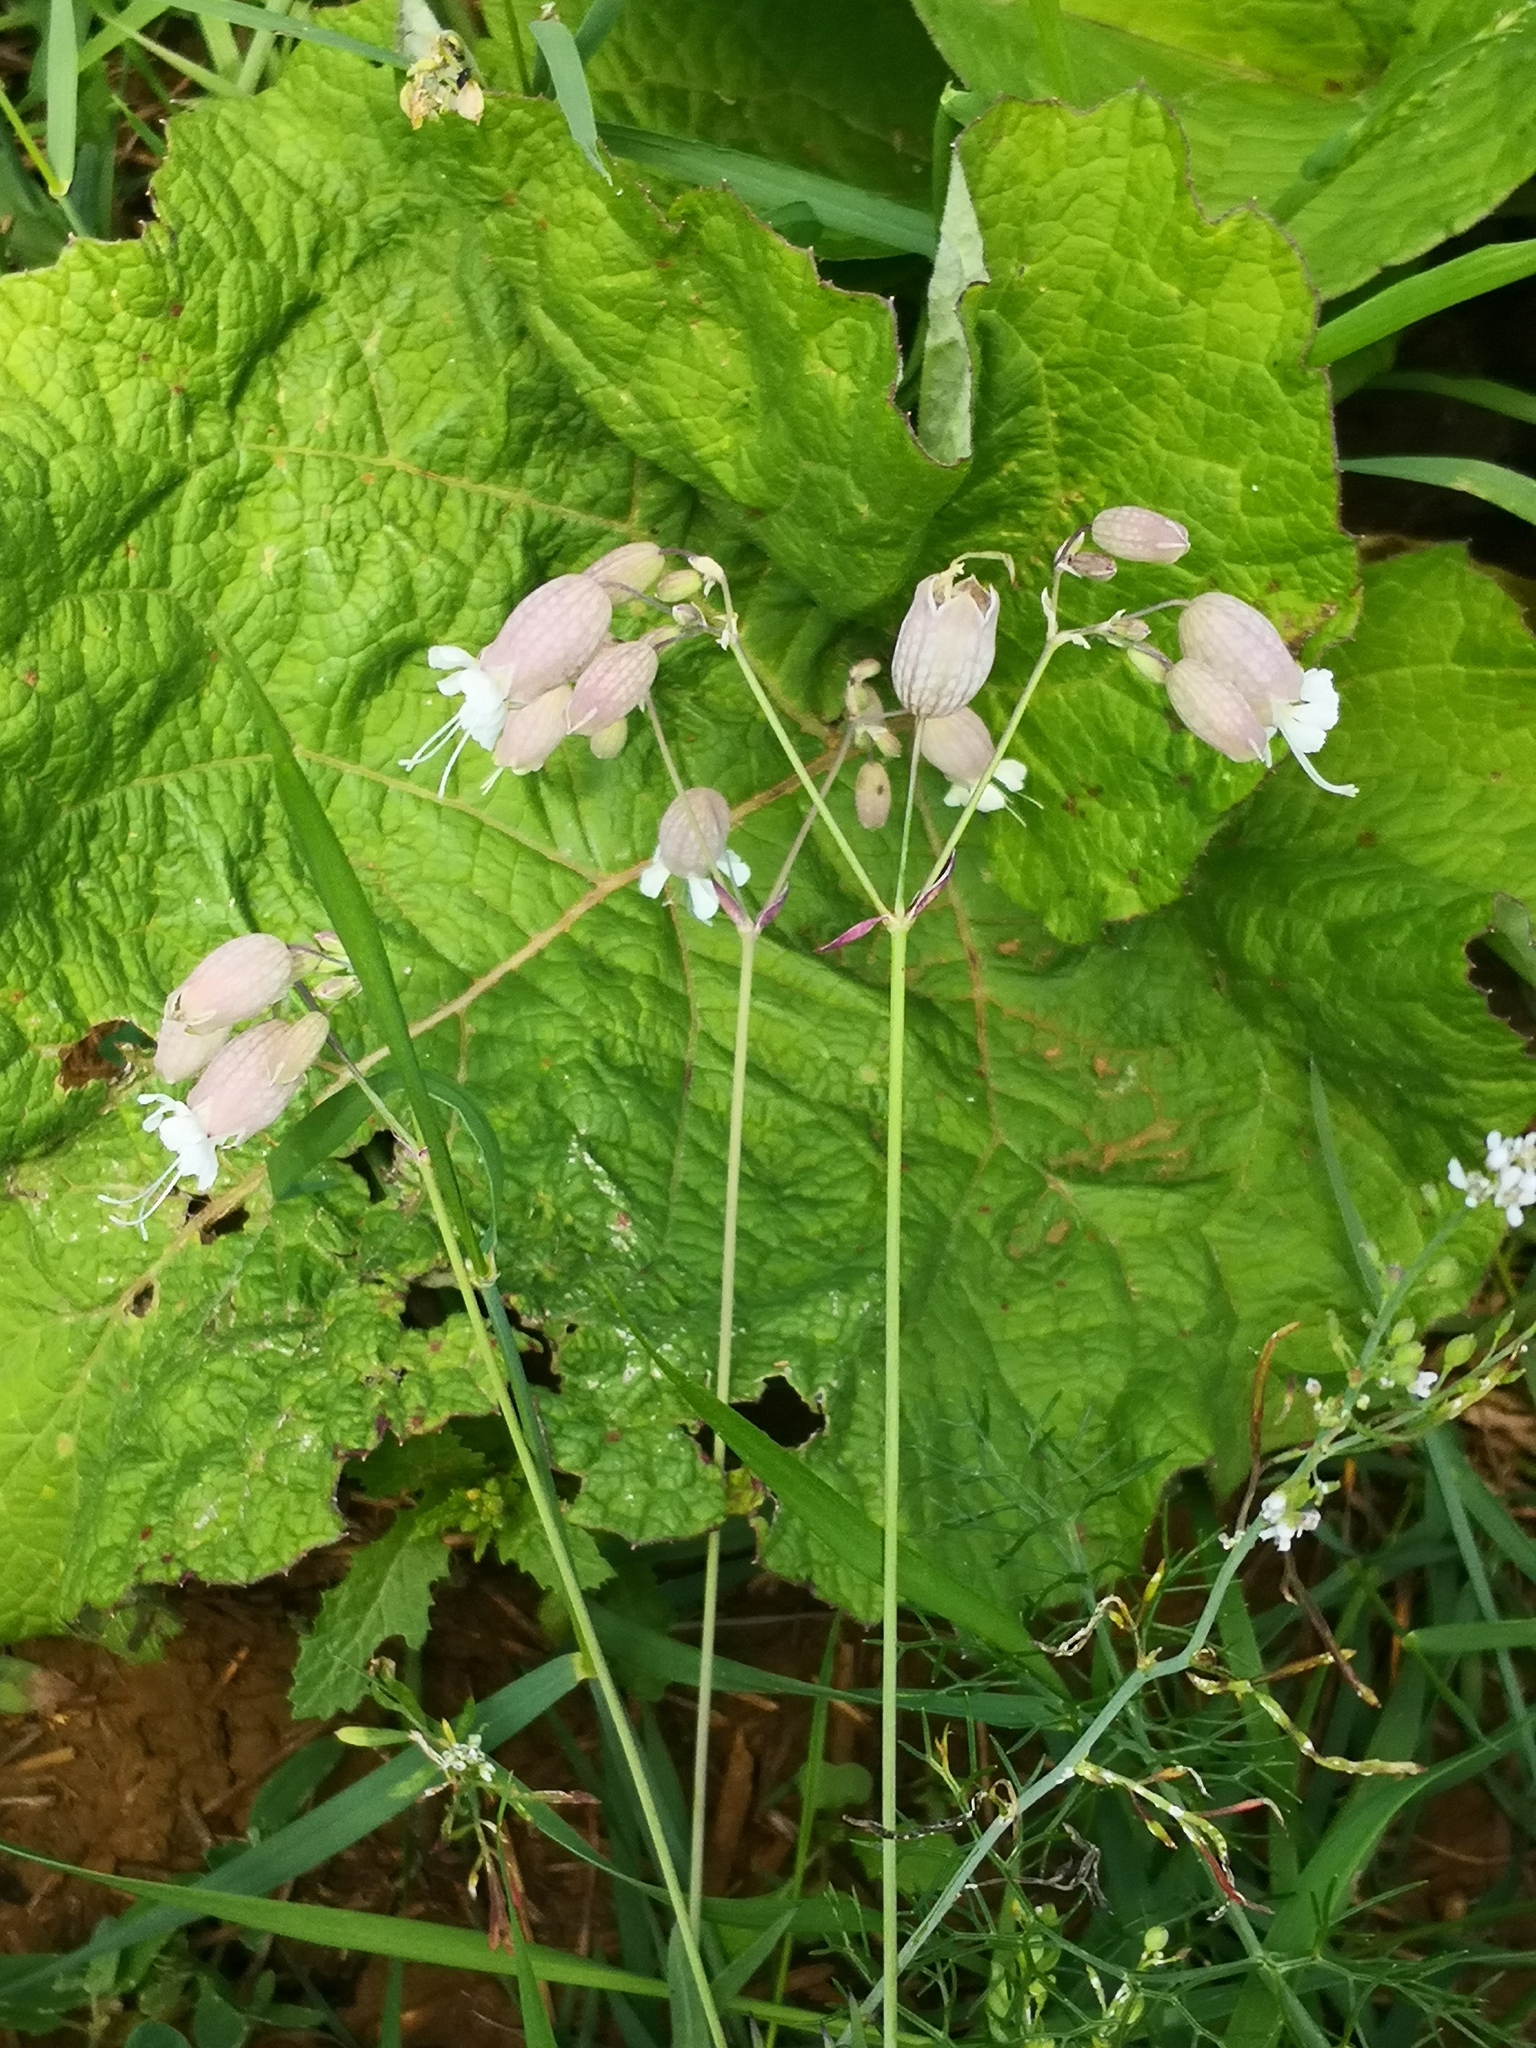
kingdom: Plantae
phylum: Tracheophyta
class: Magnoliopsida
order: Caryophyllales
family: Caryophyllaceae
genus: Silene
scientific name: Silene latifolia
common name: White campion
